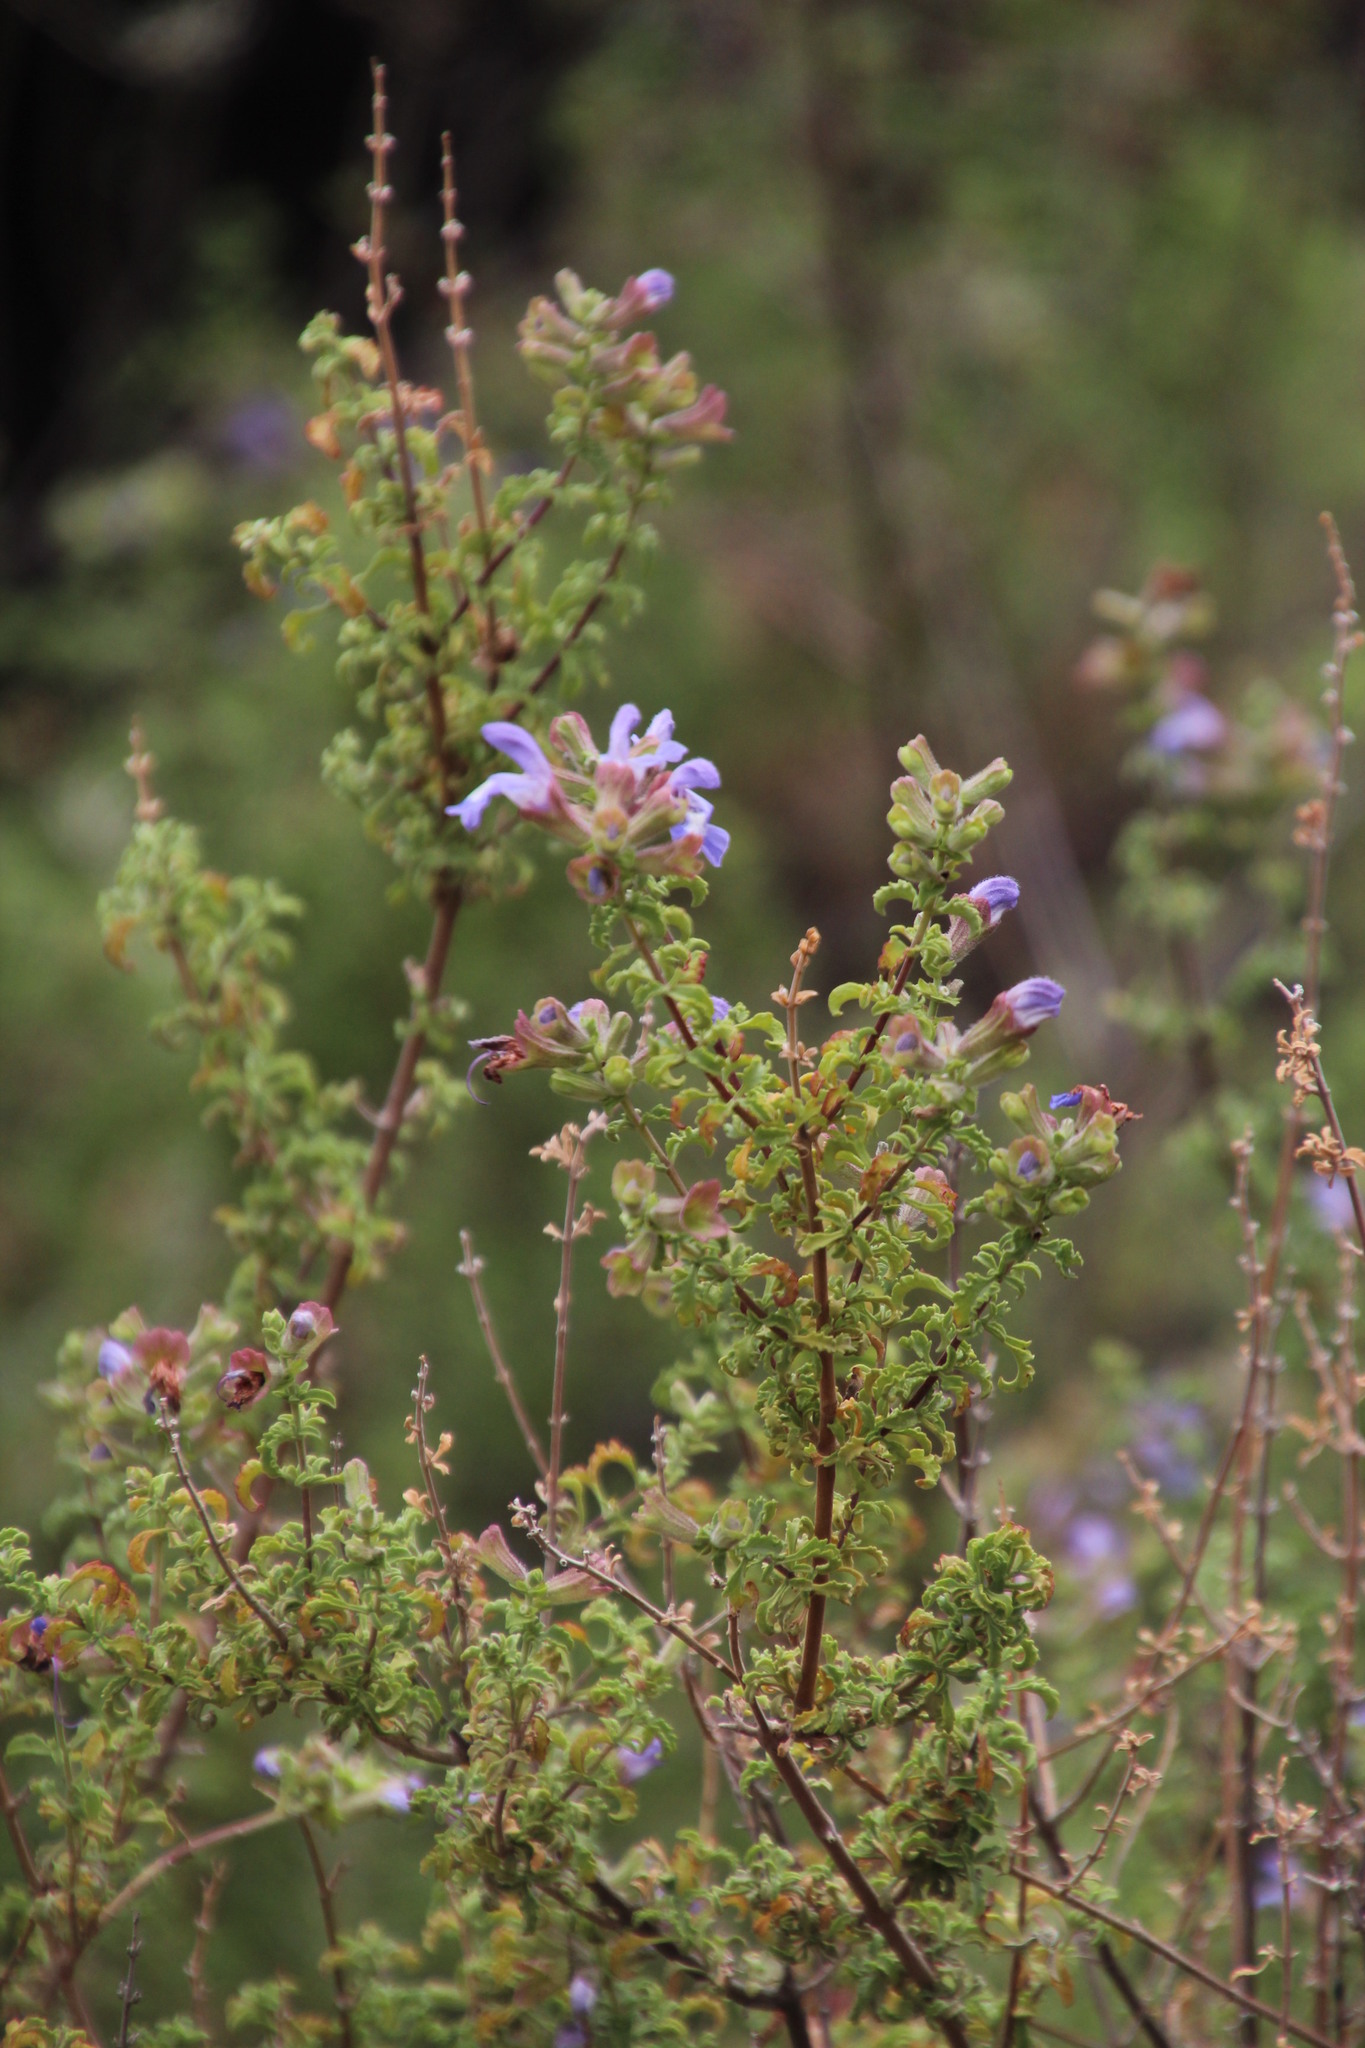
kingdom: Plantae
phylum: Tracheophyta
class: Magnoliopsida
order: Lamiales
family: Lamiaceae
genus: Salvia
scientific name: Salvia dentata
